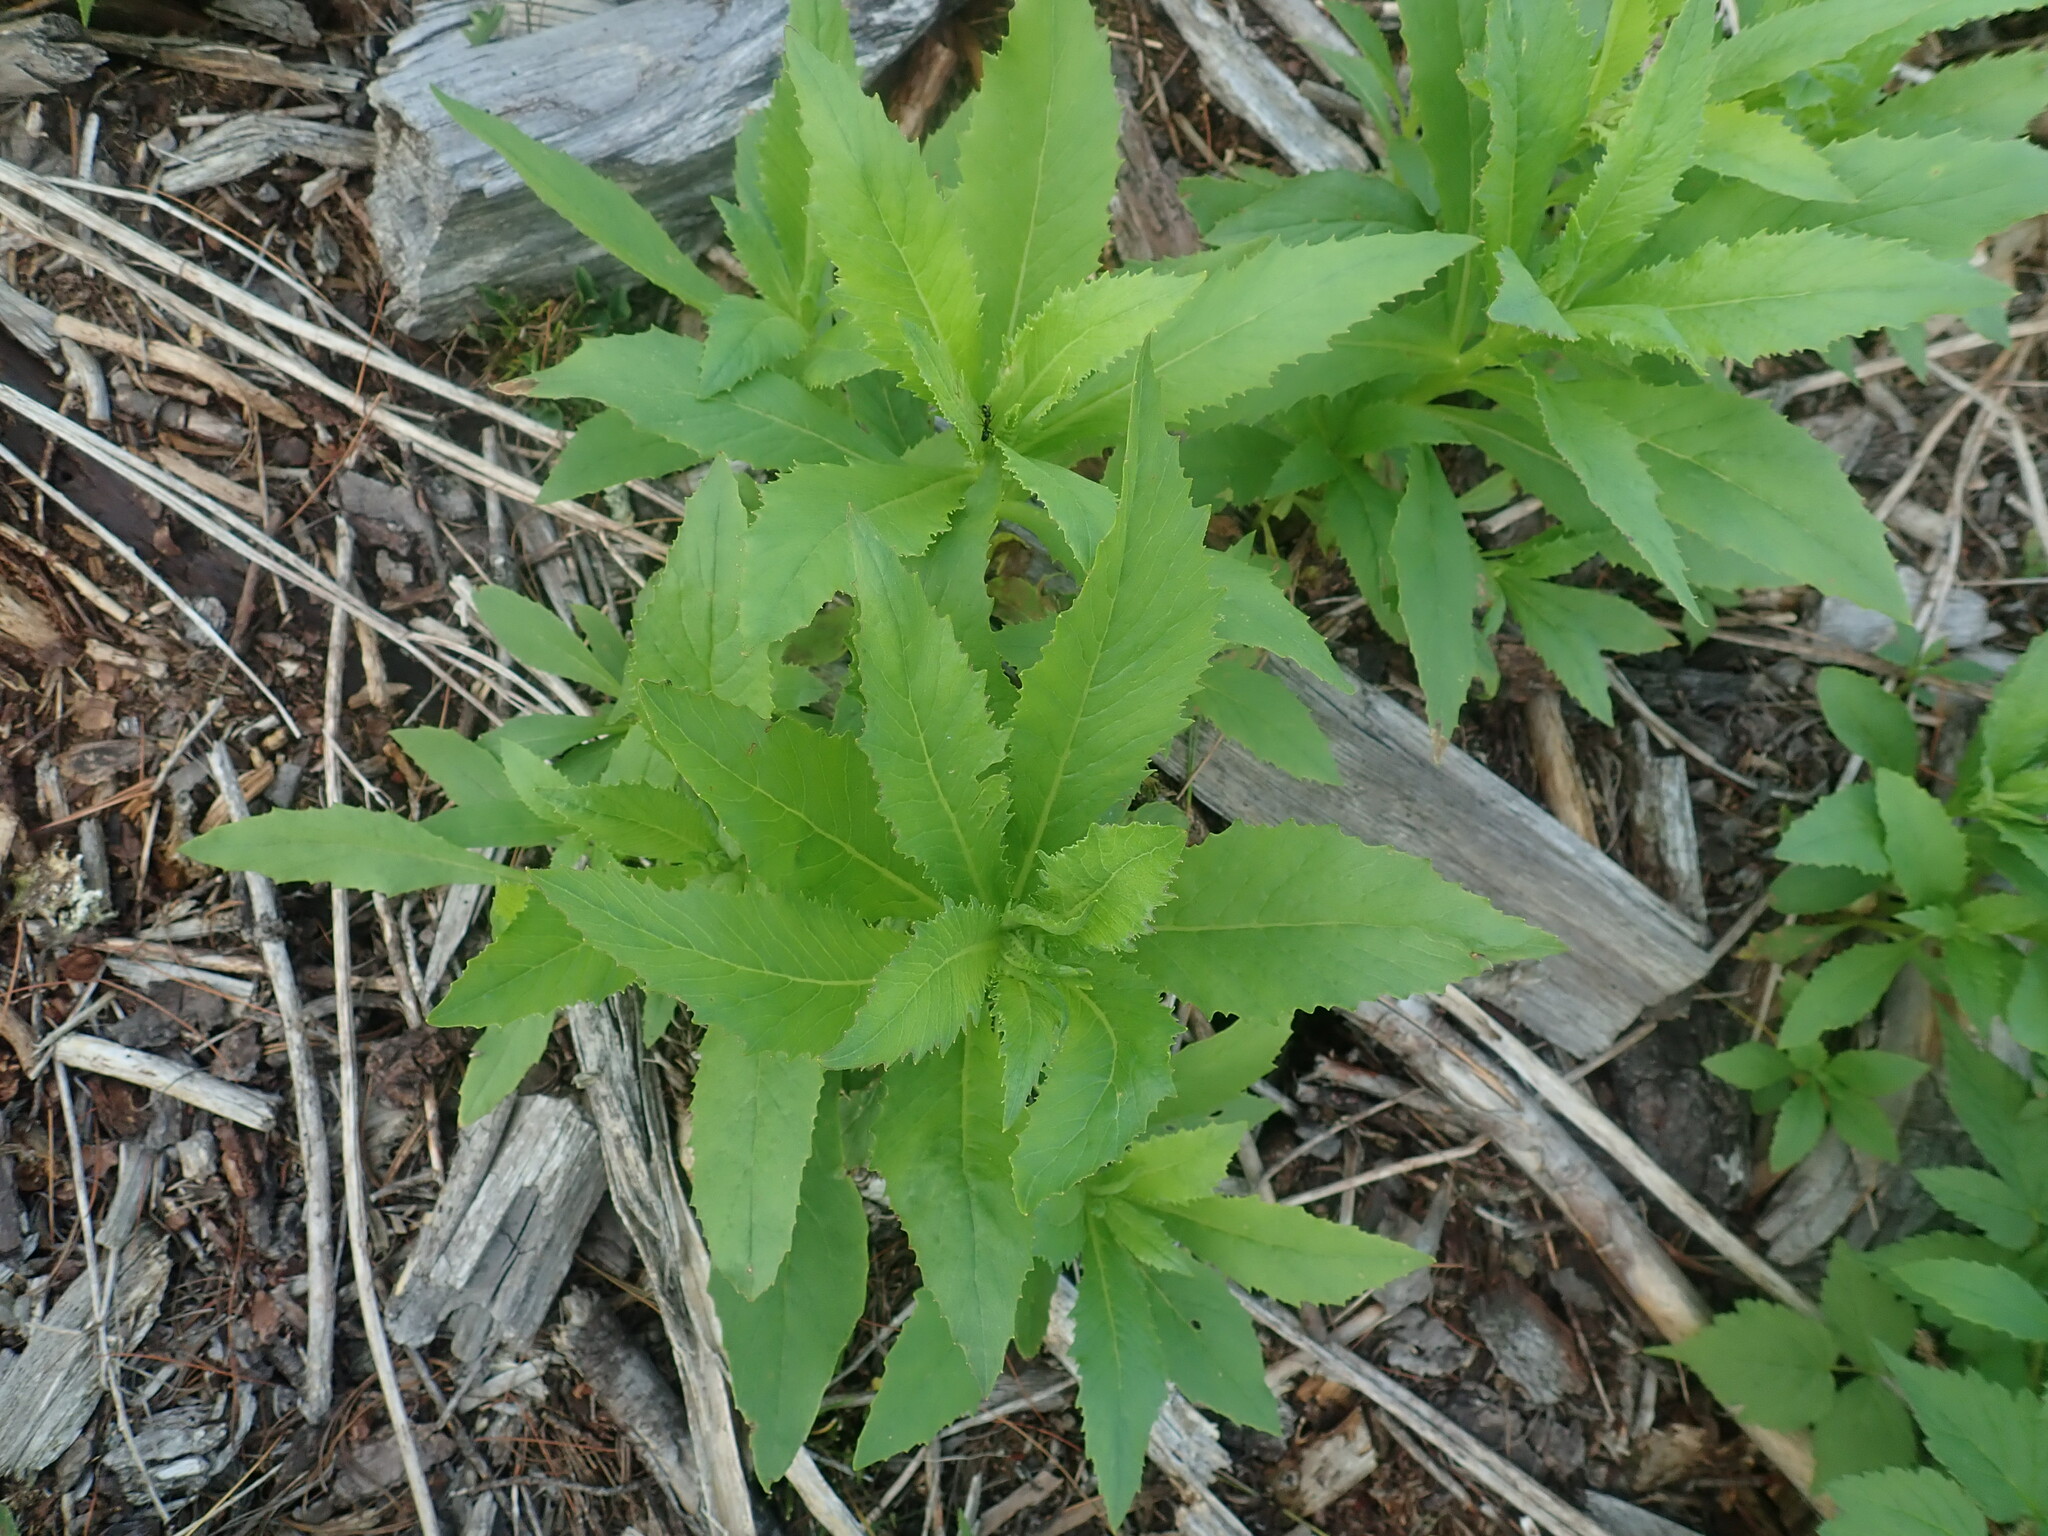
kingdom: Plantae
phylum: Tracheophyta
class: Magnoliopsida
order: Asterales
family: Asteraceae
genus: Erechtites
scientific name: Erechtites hieraciifolius
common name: American burnweed
